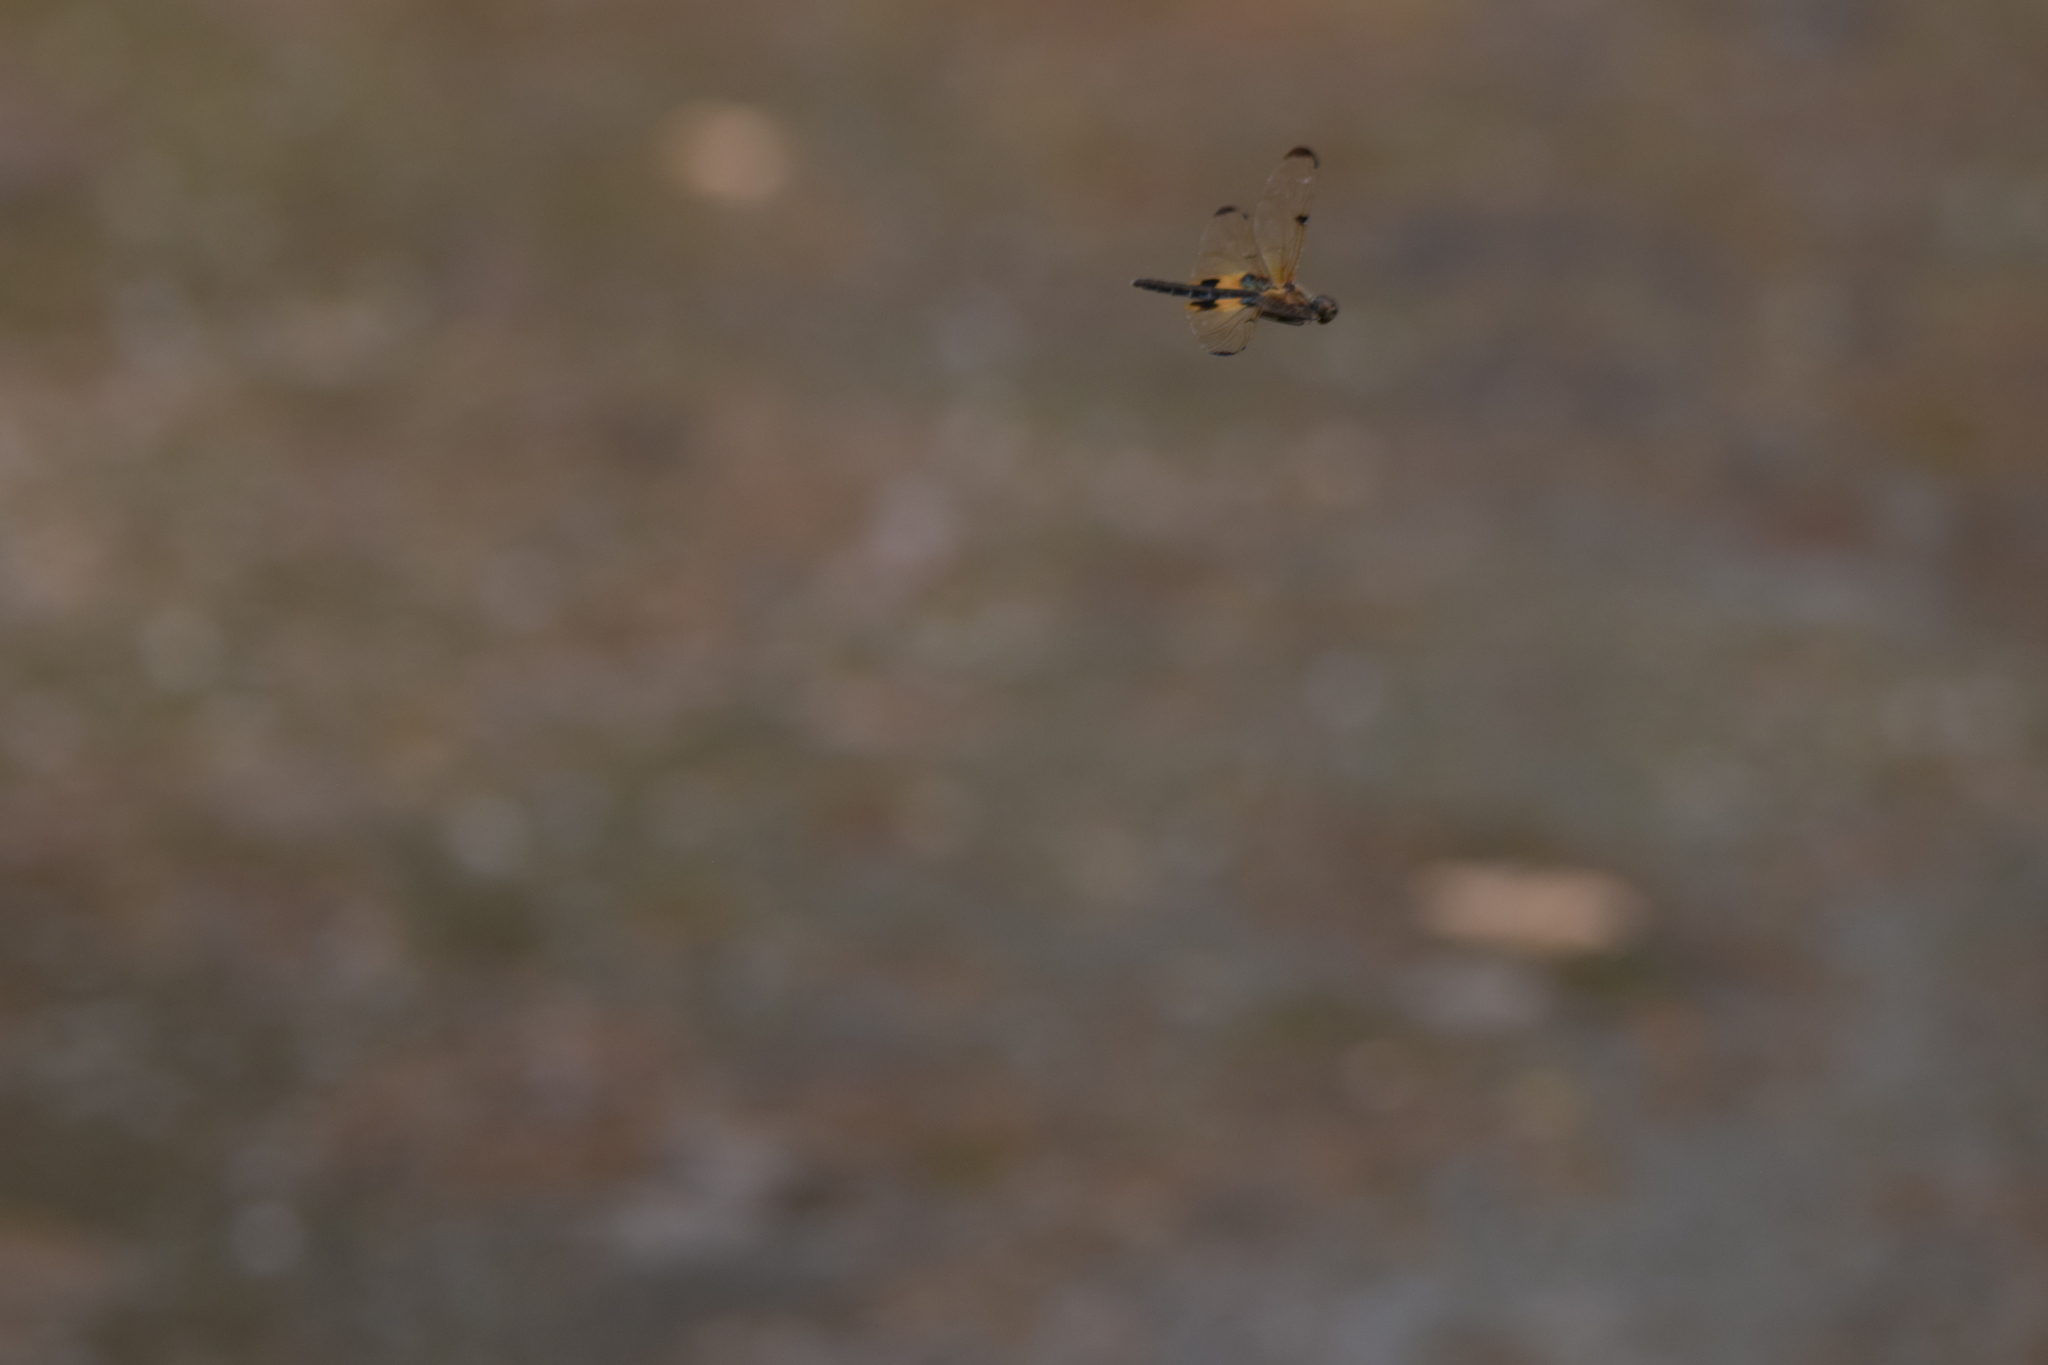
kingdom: Animalia
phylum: Arthropoda
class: Insecta
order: Odonata
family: Libellulidae
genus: Rhyothemis
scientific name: Rhyothemis phyllis
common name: Yellow-barred flutterer
